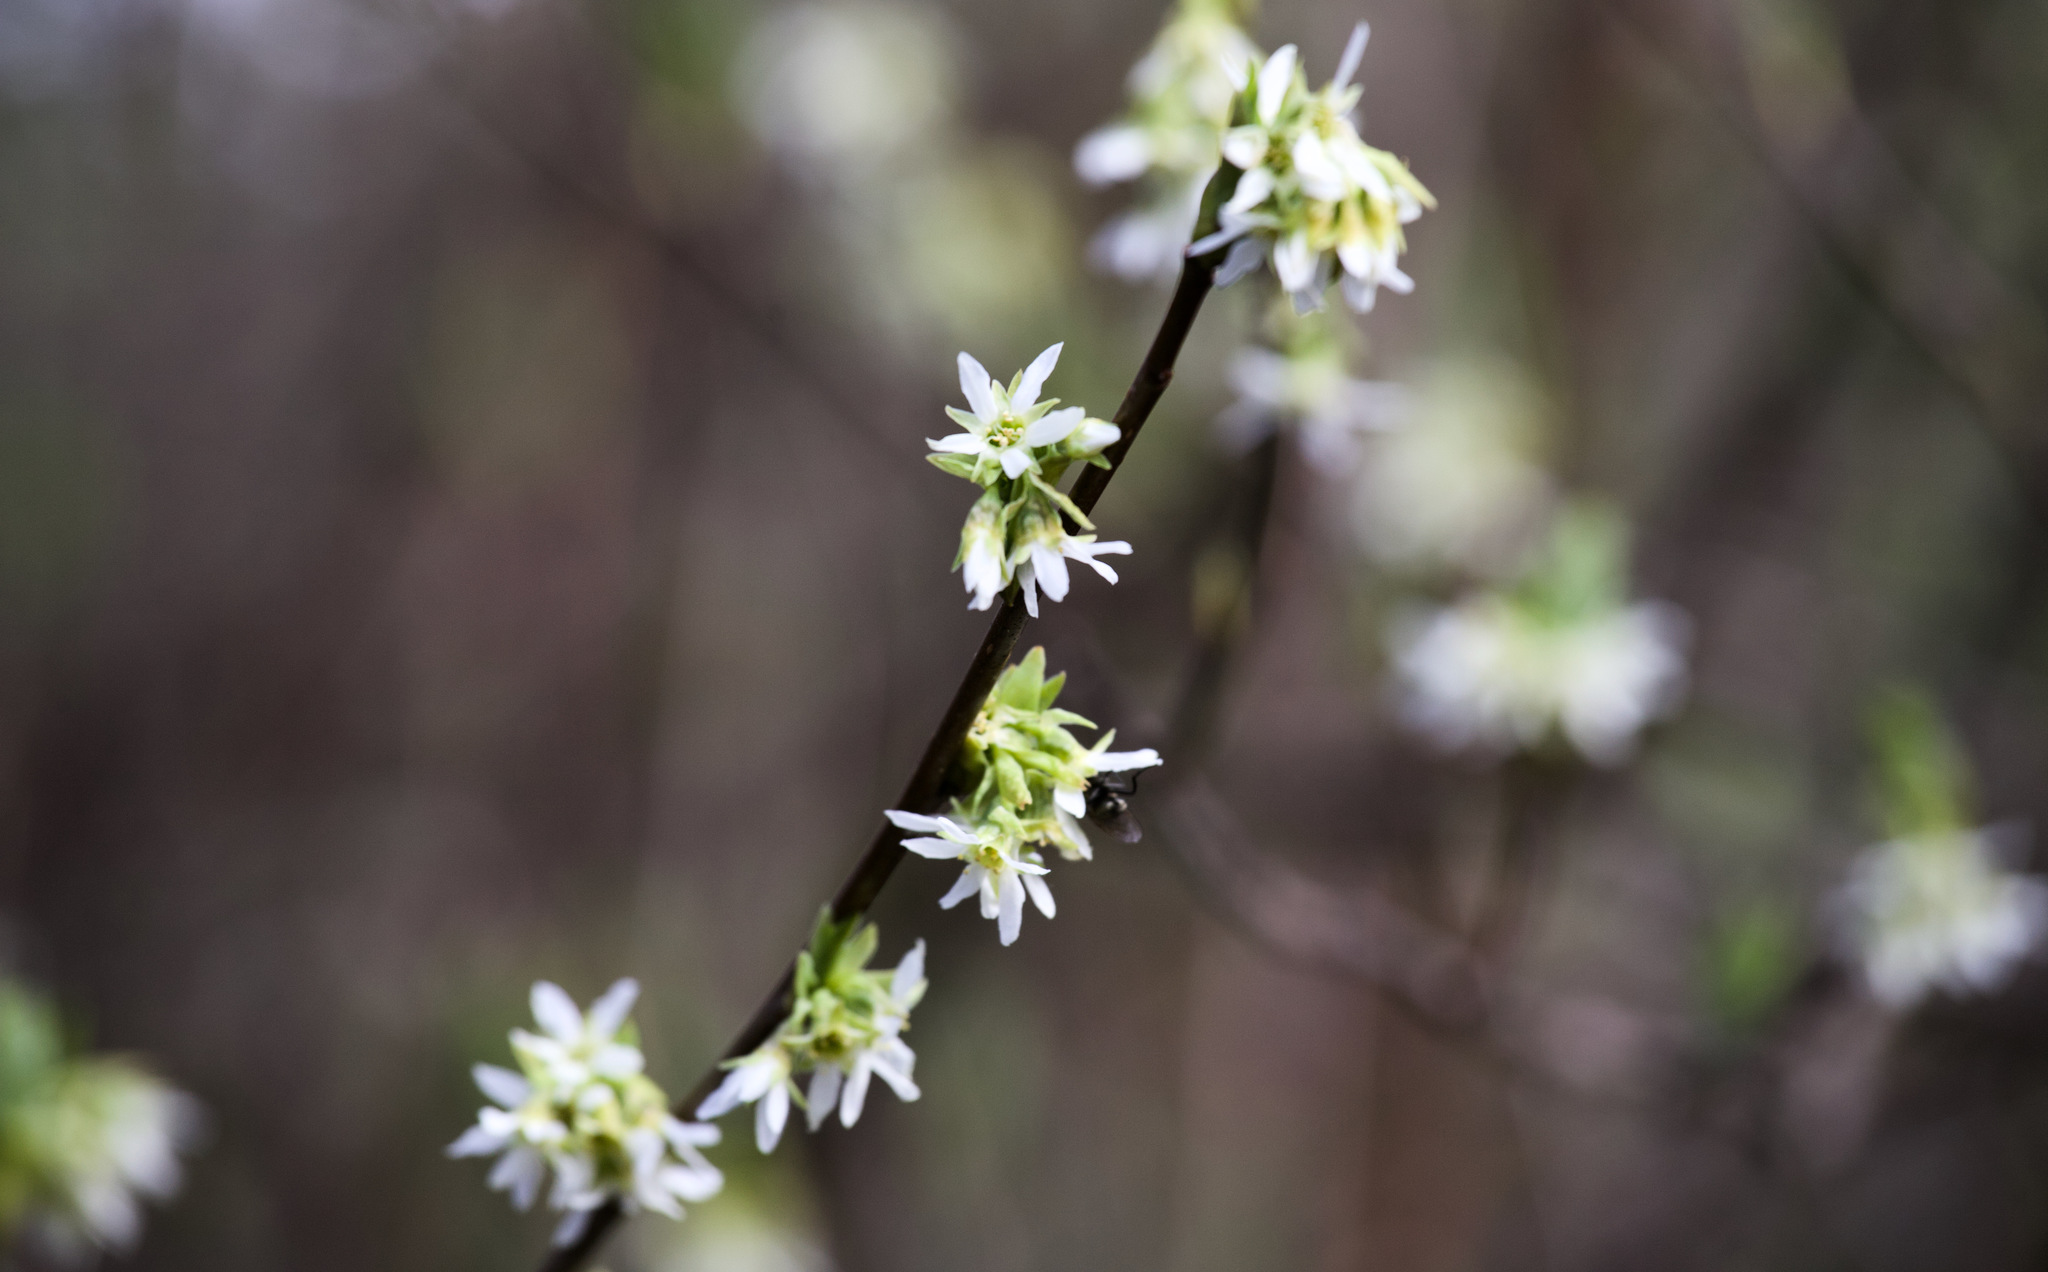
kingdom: Plantae
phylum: Tracheophyta
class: Magnoliopsida
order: Rosales
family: Rosaceae
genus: Oemleria
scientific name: Oemleria cerasiformis
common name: Osoberry
